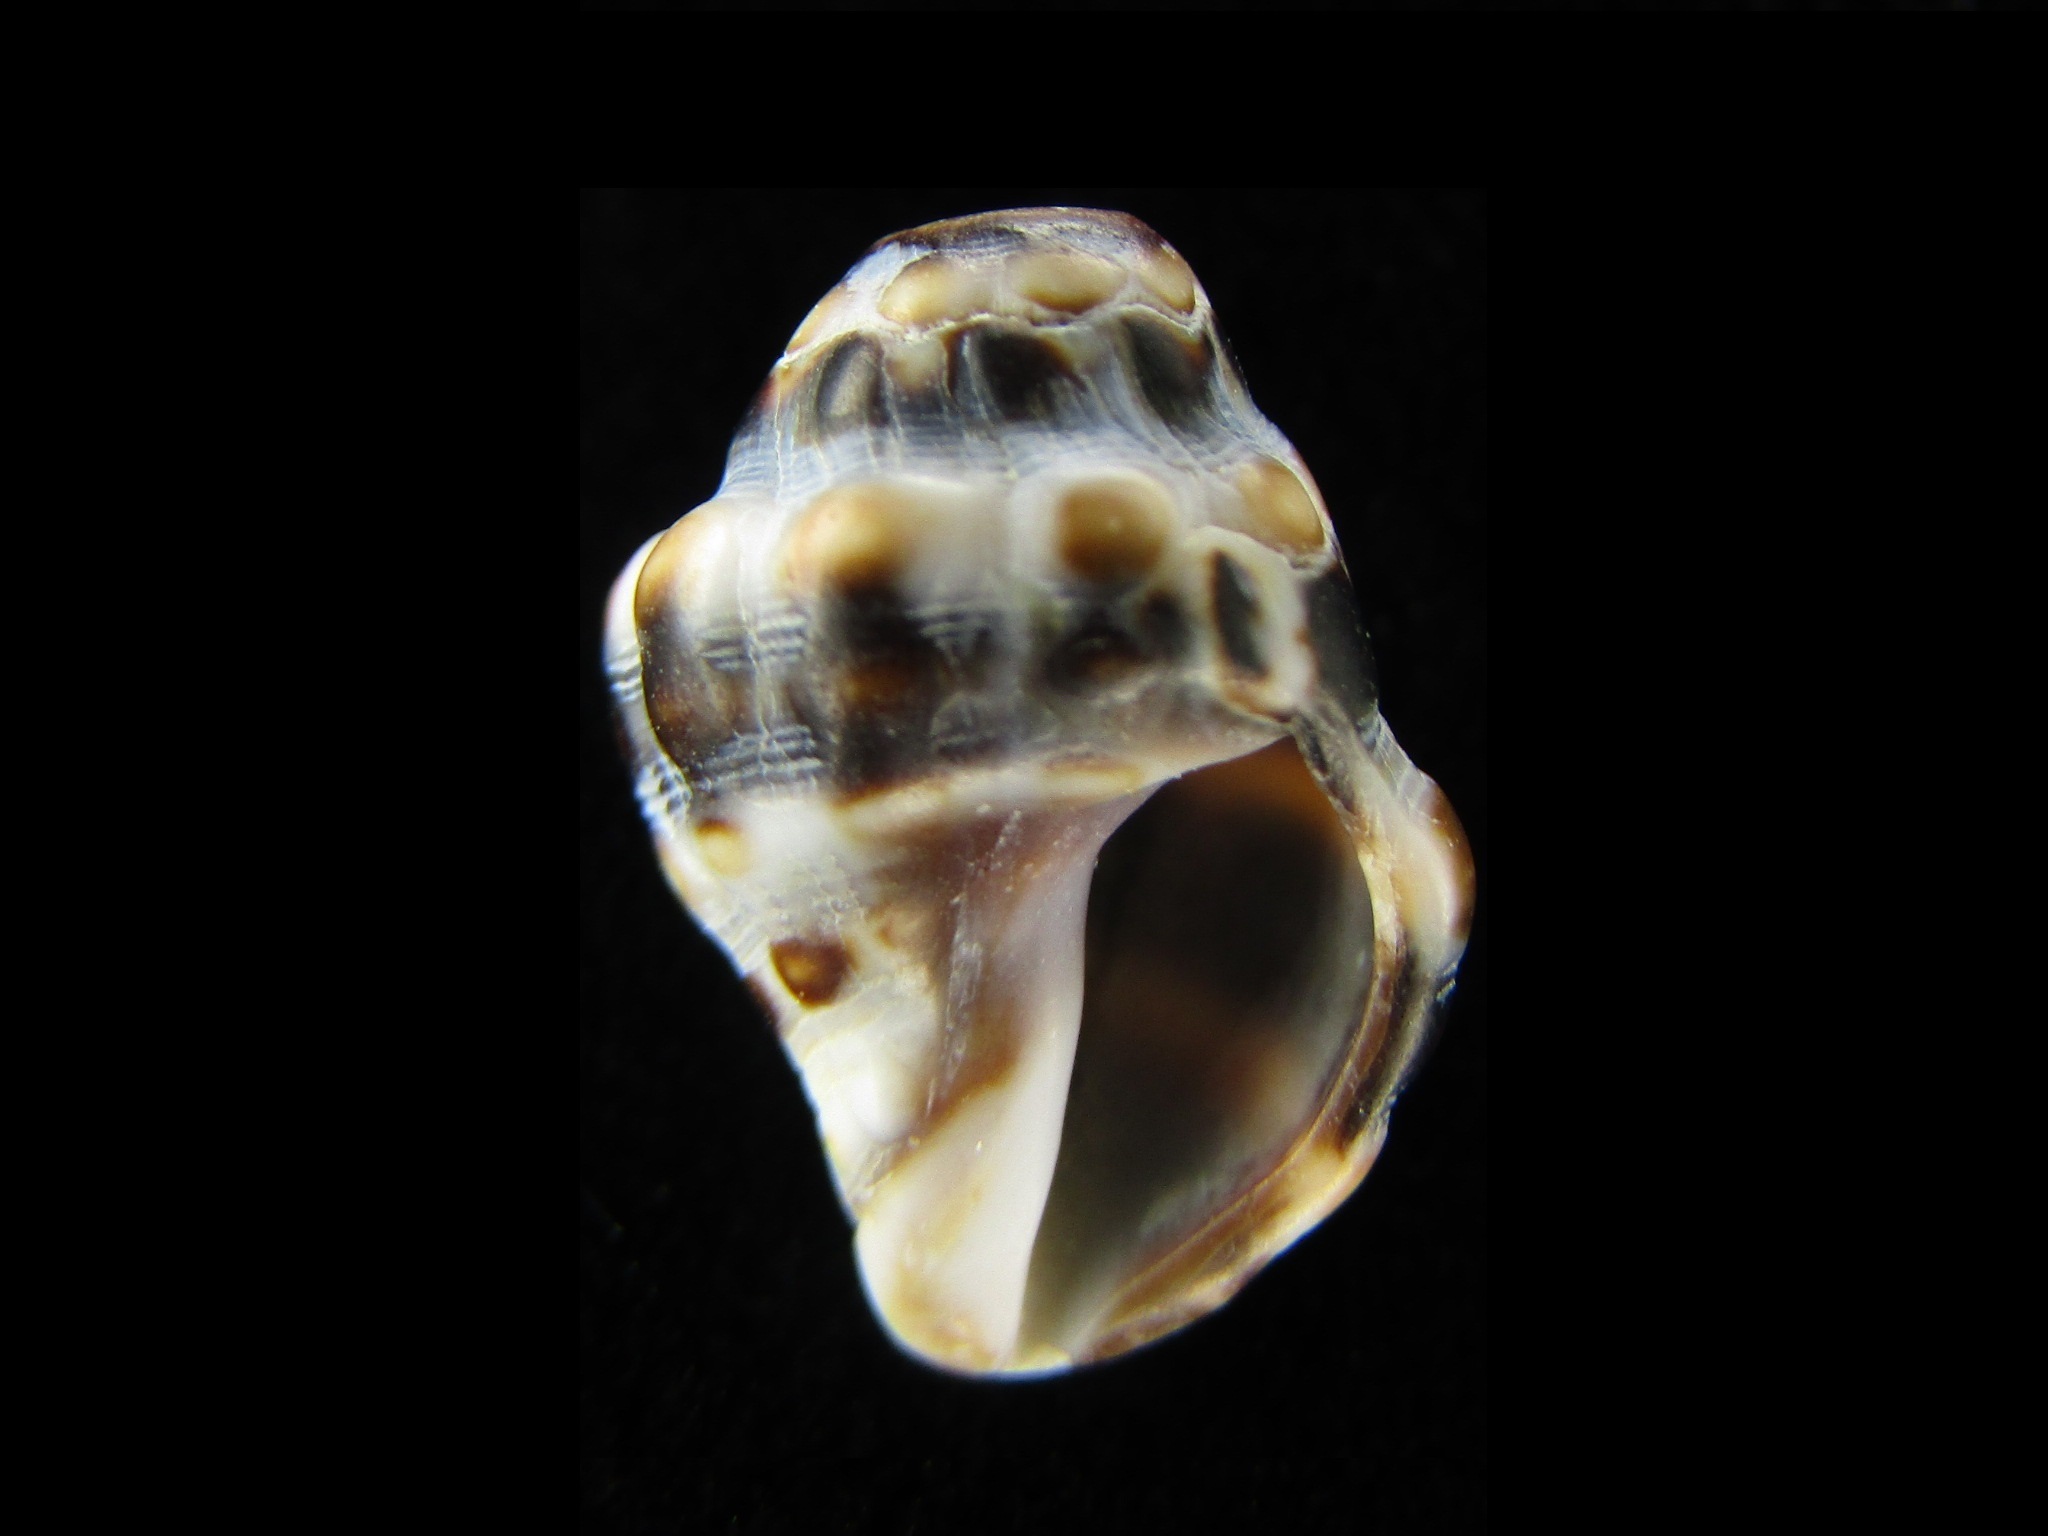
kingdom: Animalia
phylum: Mollusca
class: Gastropoda
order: Neogastropoda
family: Muricidae
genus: Tenguella
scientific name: Tenguella musiva
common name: Mosaic purpura
